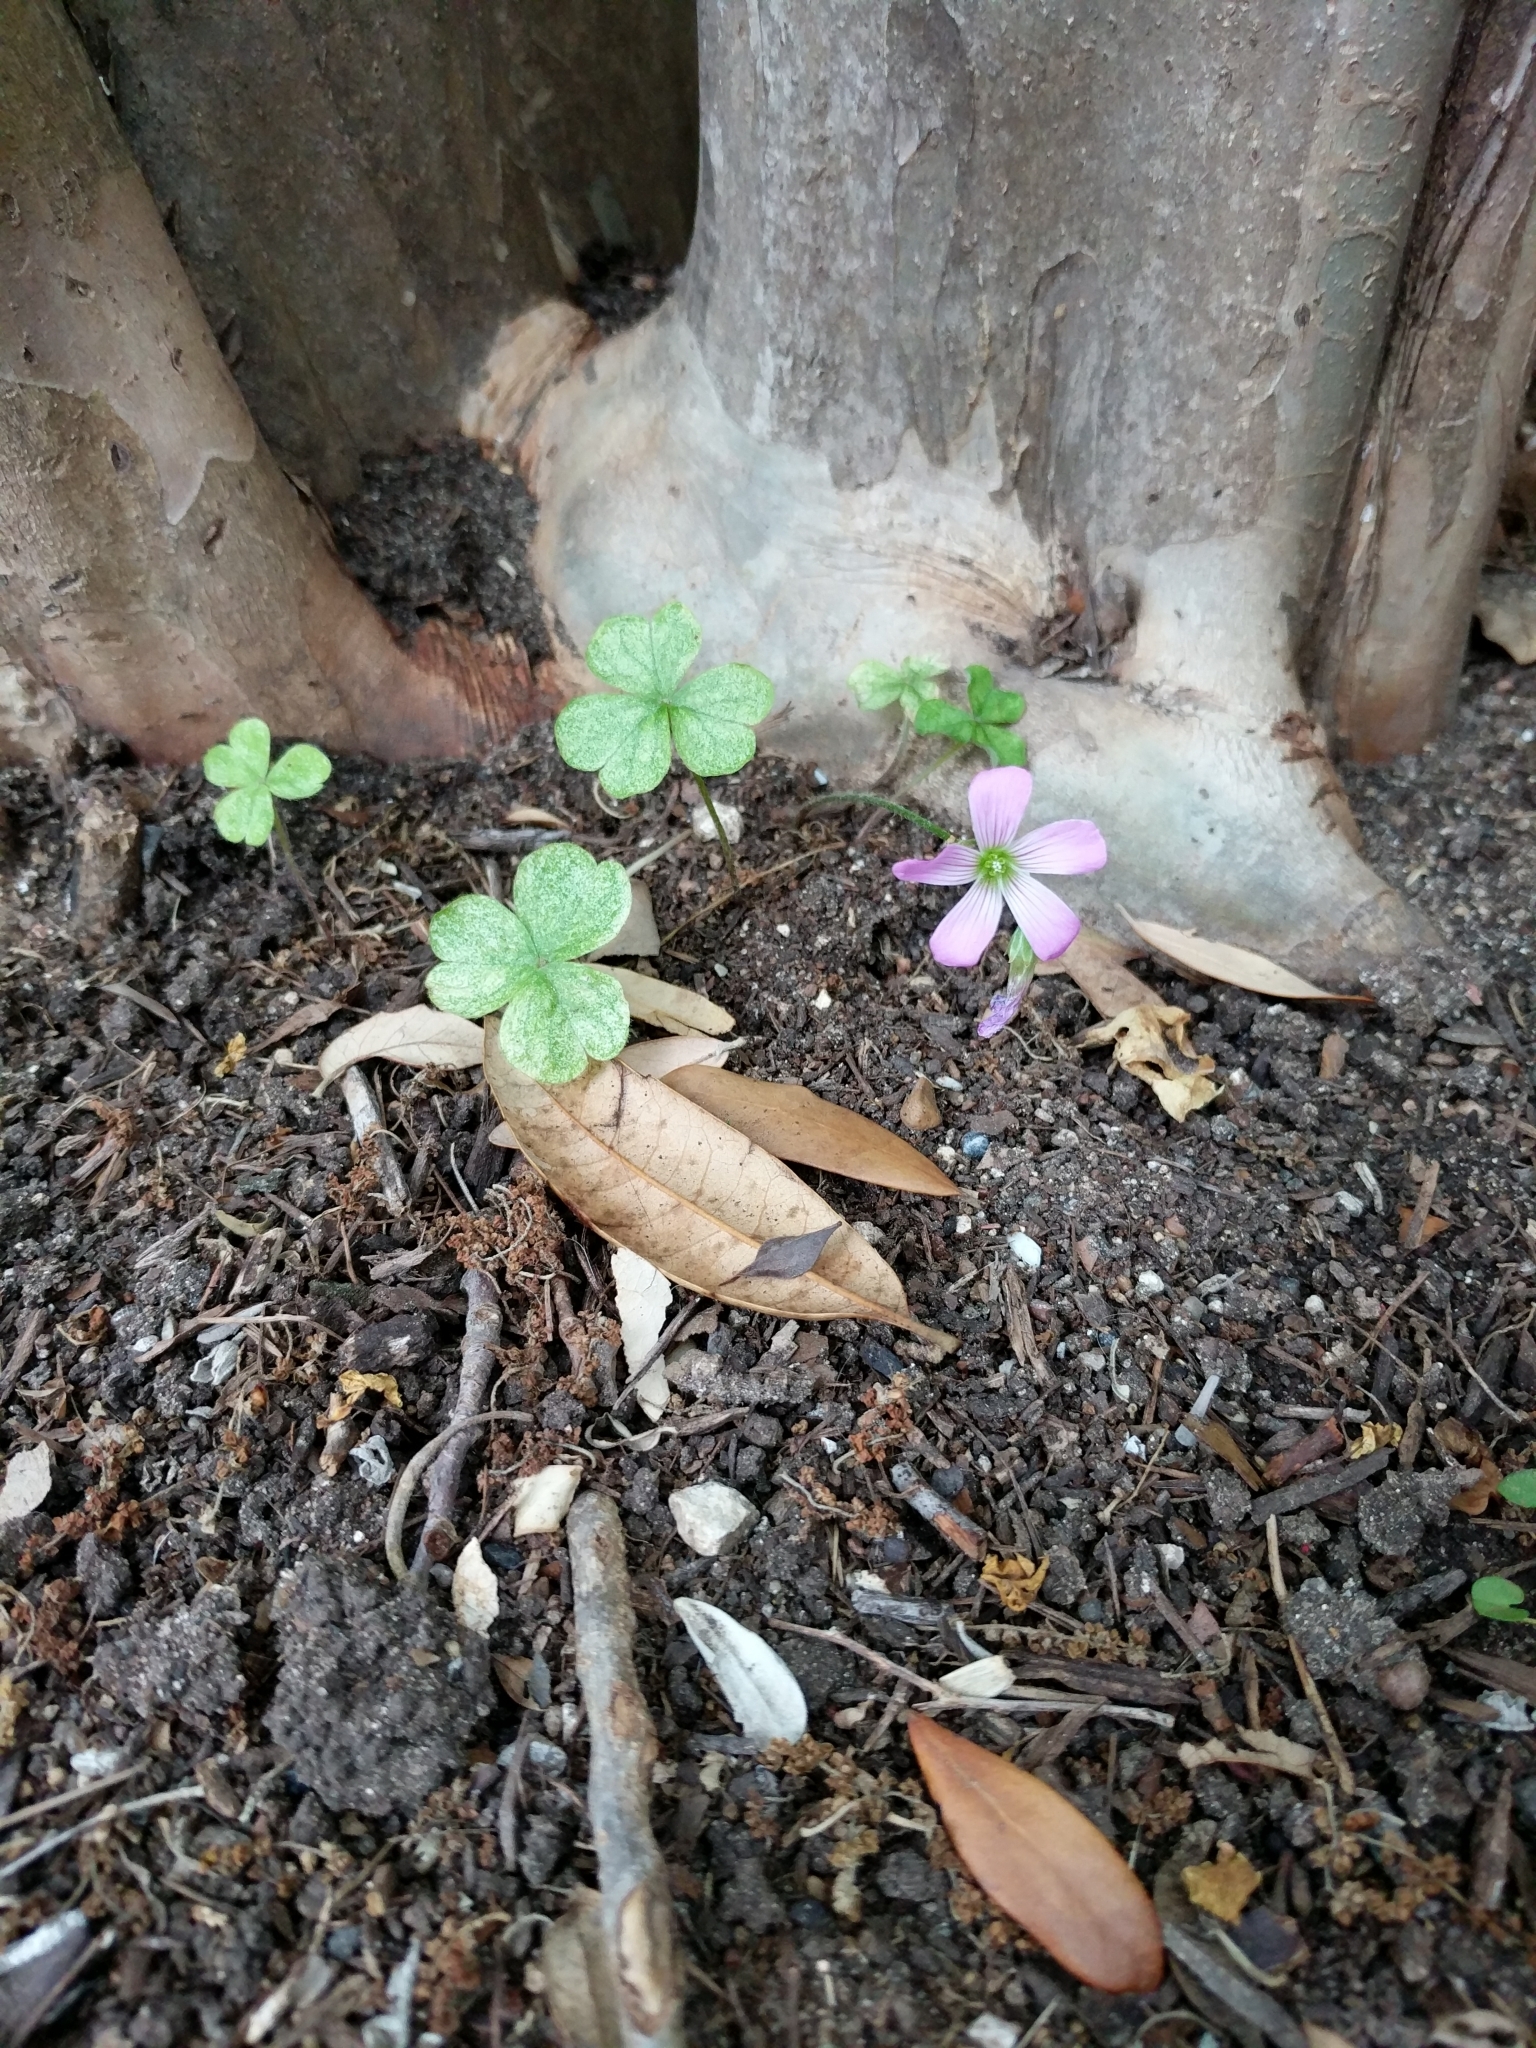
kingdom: Plantae
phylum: Tracheophyta
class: Magnoliopsida
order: Oxalidales
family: Oxalidaceae
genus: Oxalis
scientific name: Oxalis debilis
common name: Large-flowered pink-sorrel
